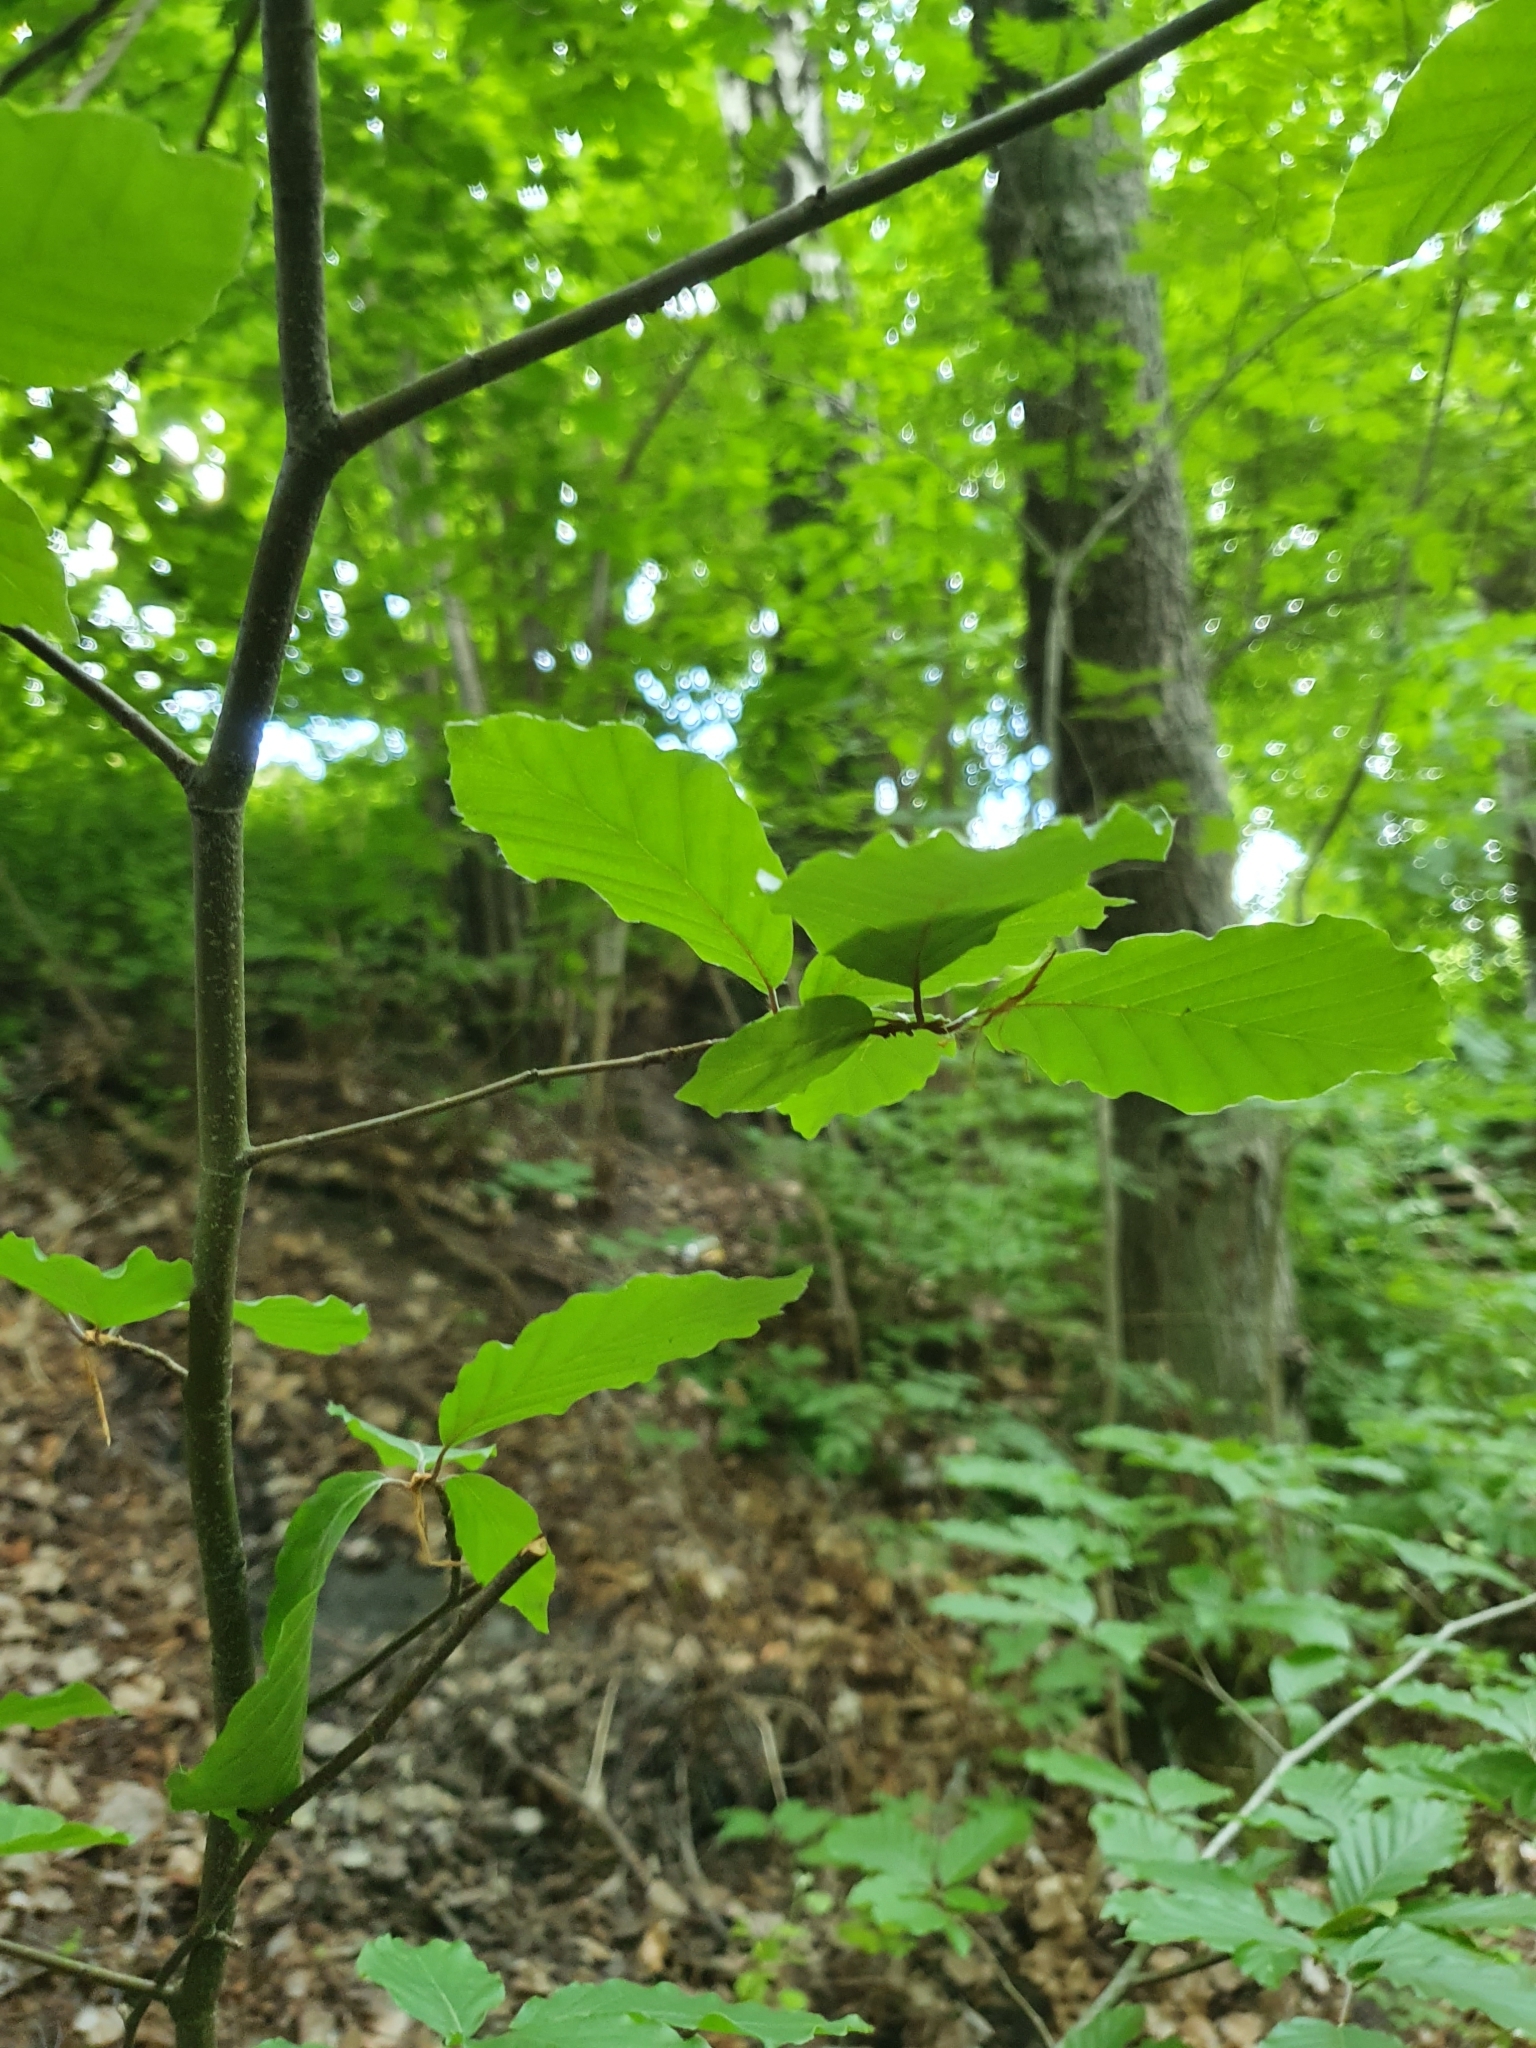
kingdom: Plantae
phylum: Tracheophyta
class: Magnoliopsida
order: Fagales
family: Fagaceae
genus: Fagus
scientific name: Fagus sylvatica
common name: Beech
